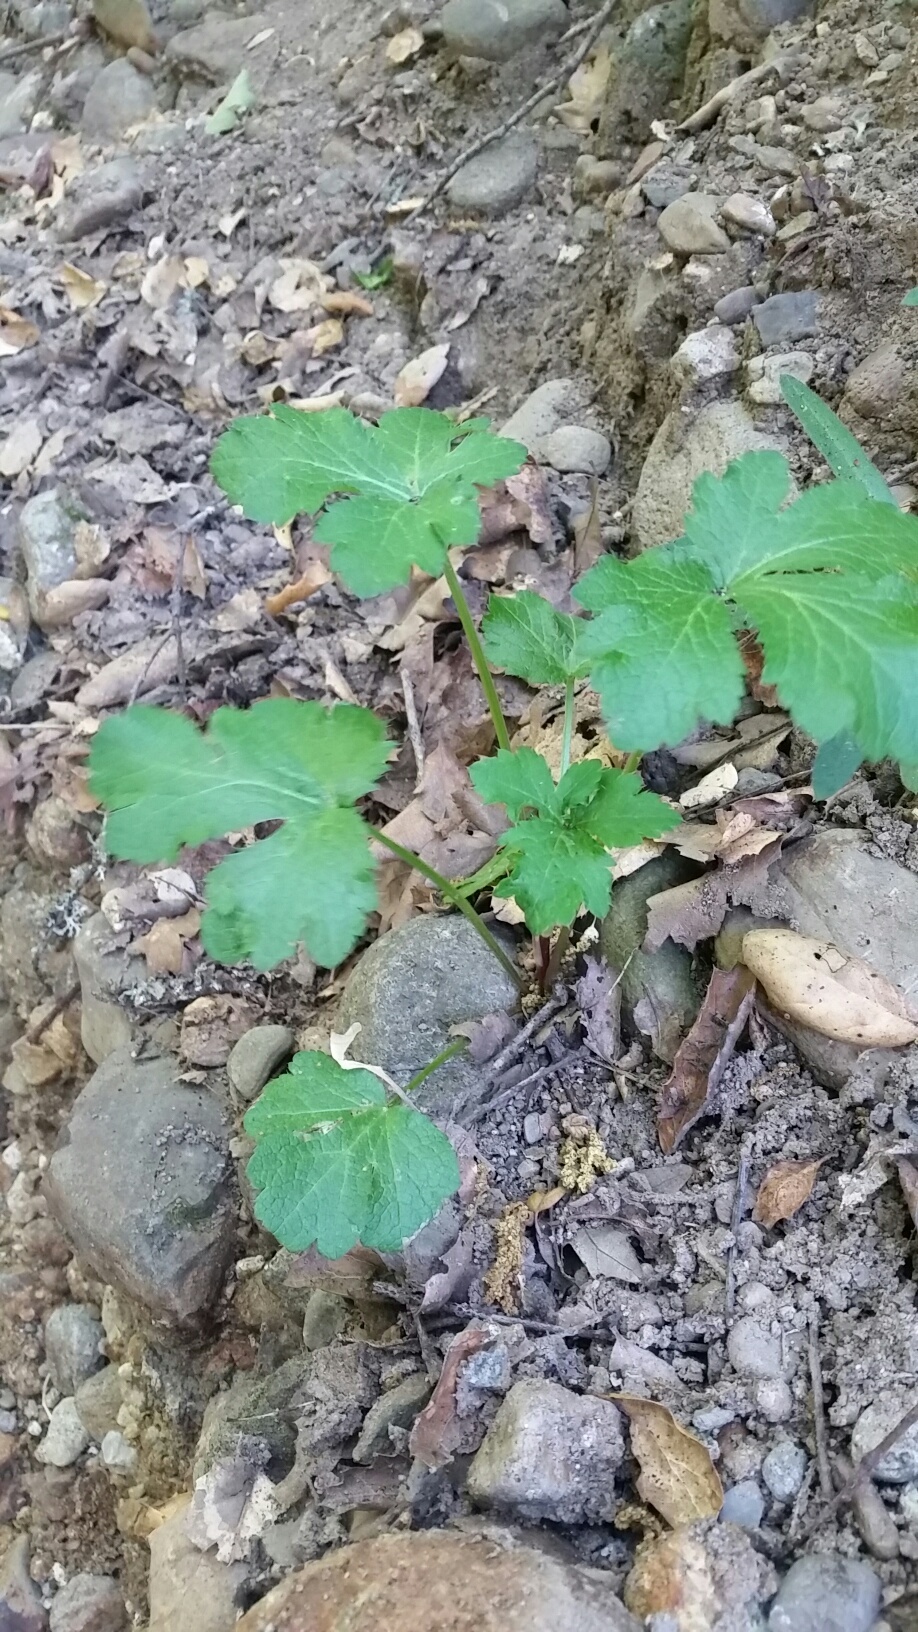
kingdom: Plantae
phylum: Tracheophyta
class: Magnoliopsida
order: Apiales
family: Apiaceae
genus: Sanicula
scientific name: Sanicula crassicaulis
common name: Western snakeroot
